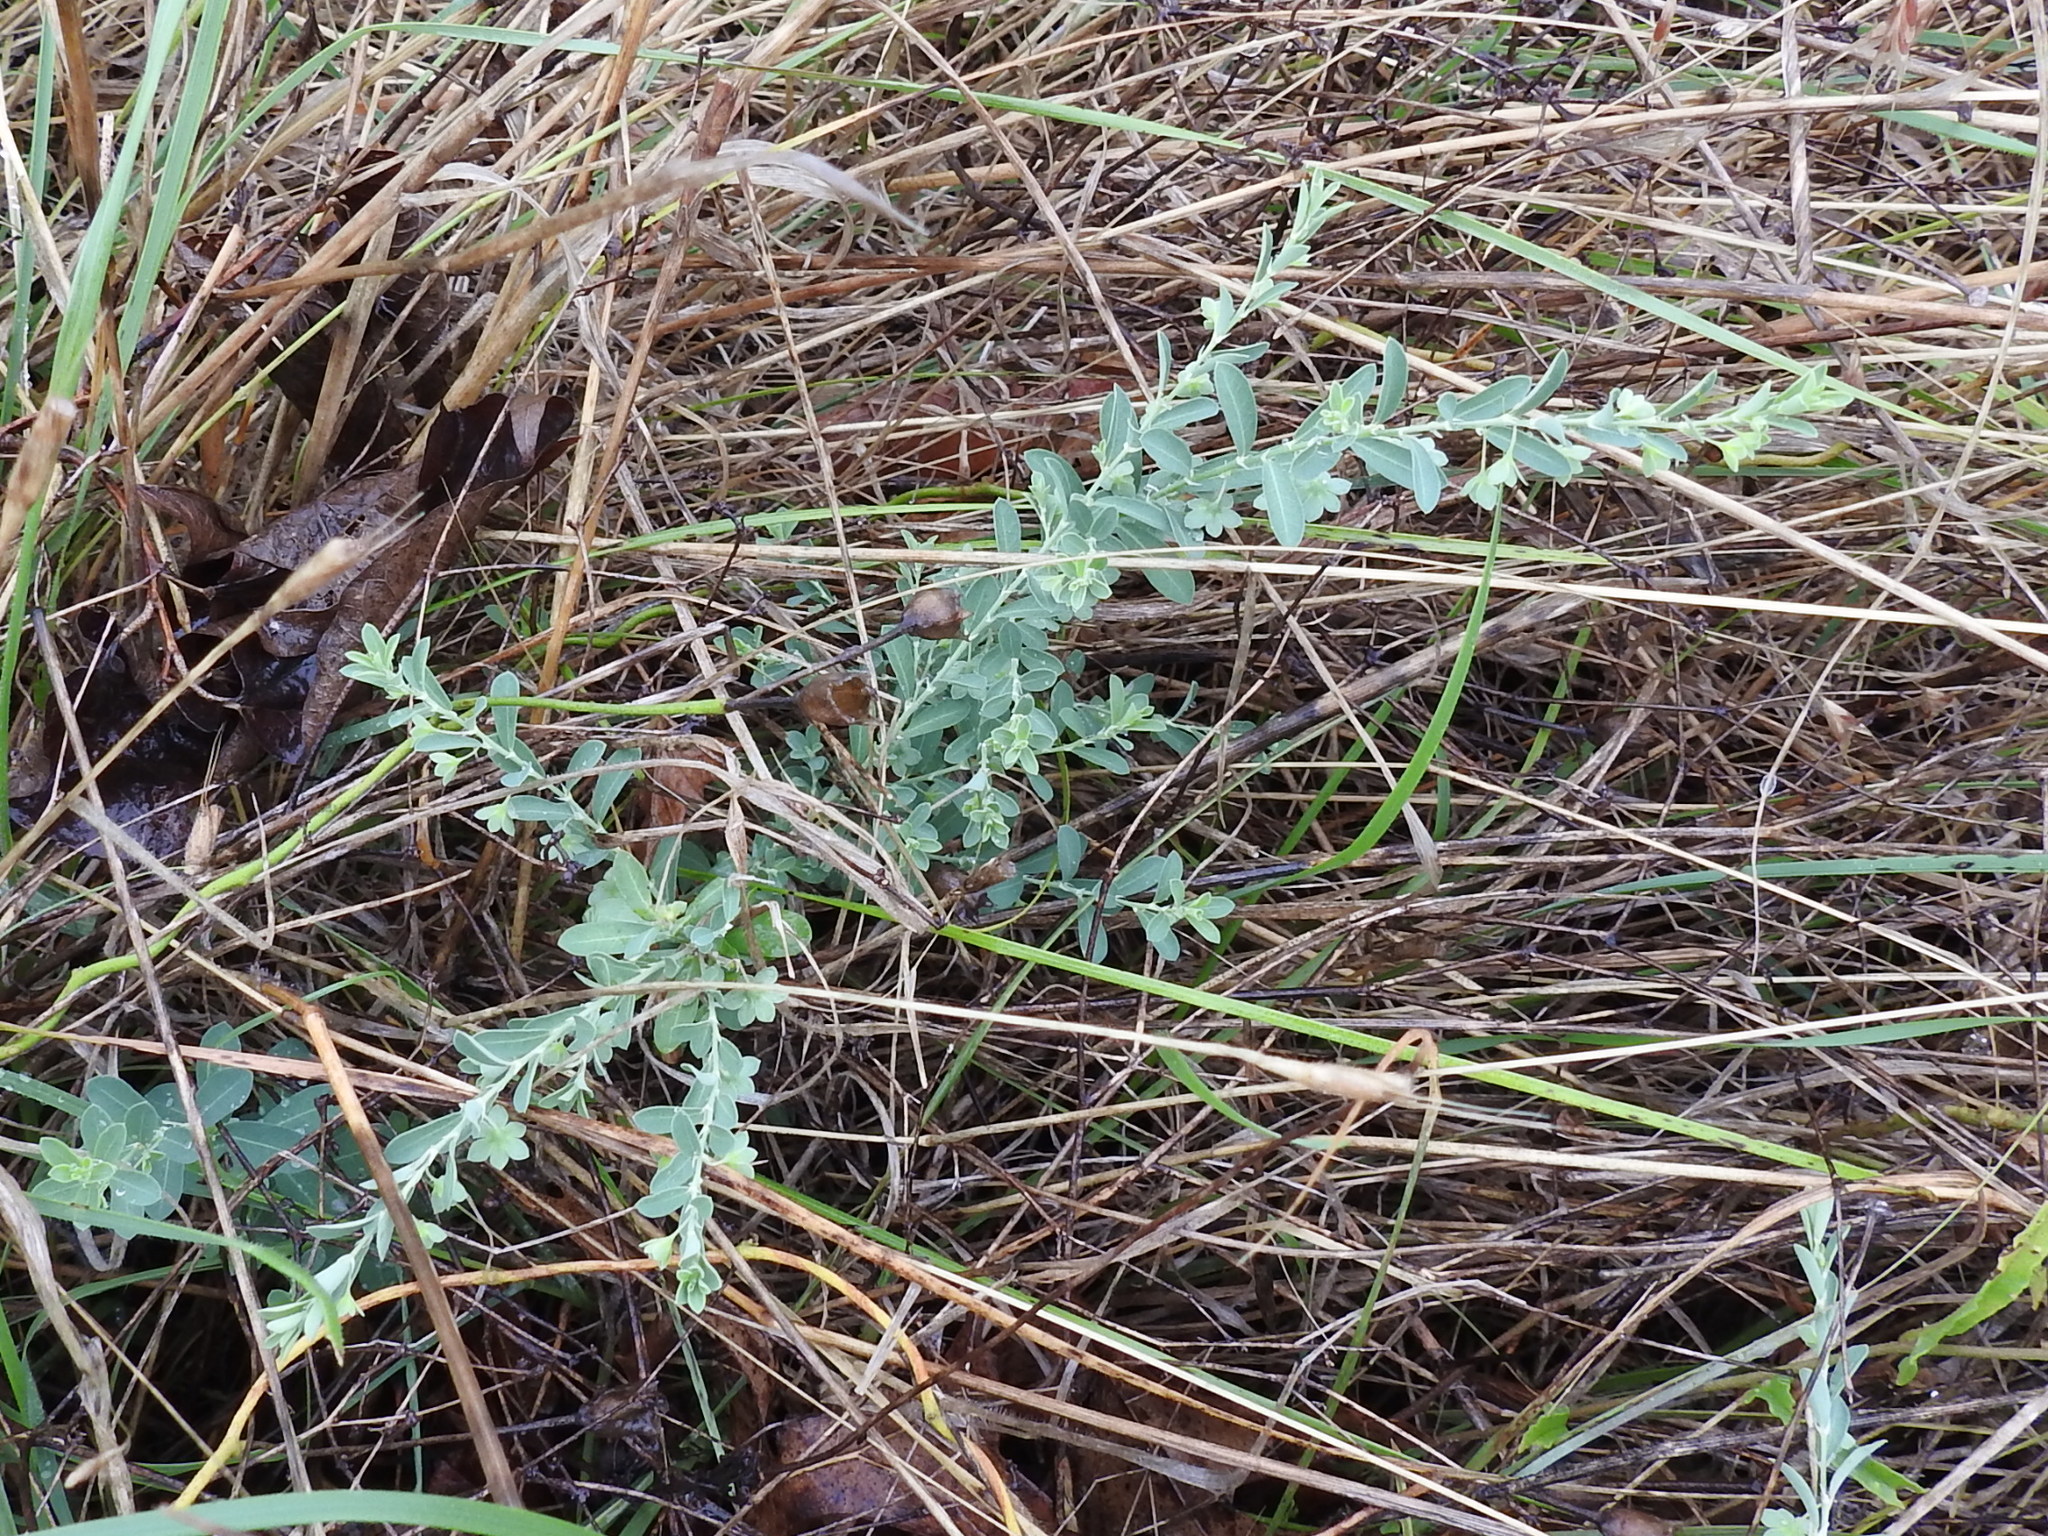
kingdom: Plantae
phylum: Tracheophyta
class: Magnoliopsida
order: Malpighiales
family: Phyllanthaceae
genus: Phyllanthus
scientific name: Phyllanthus polygonoides
